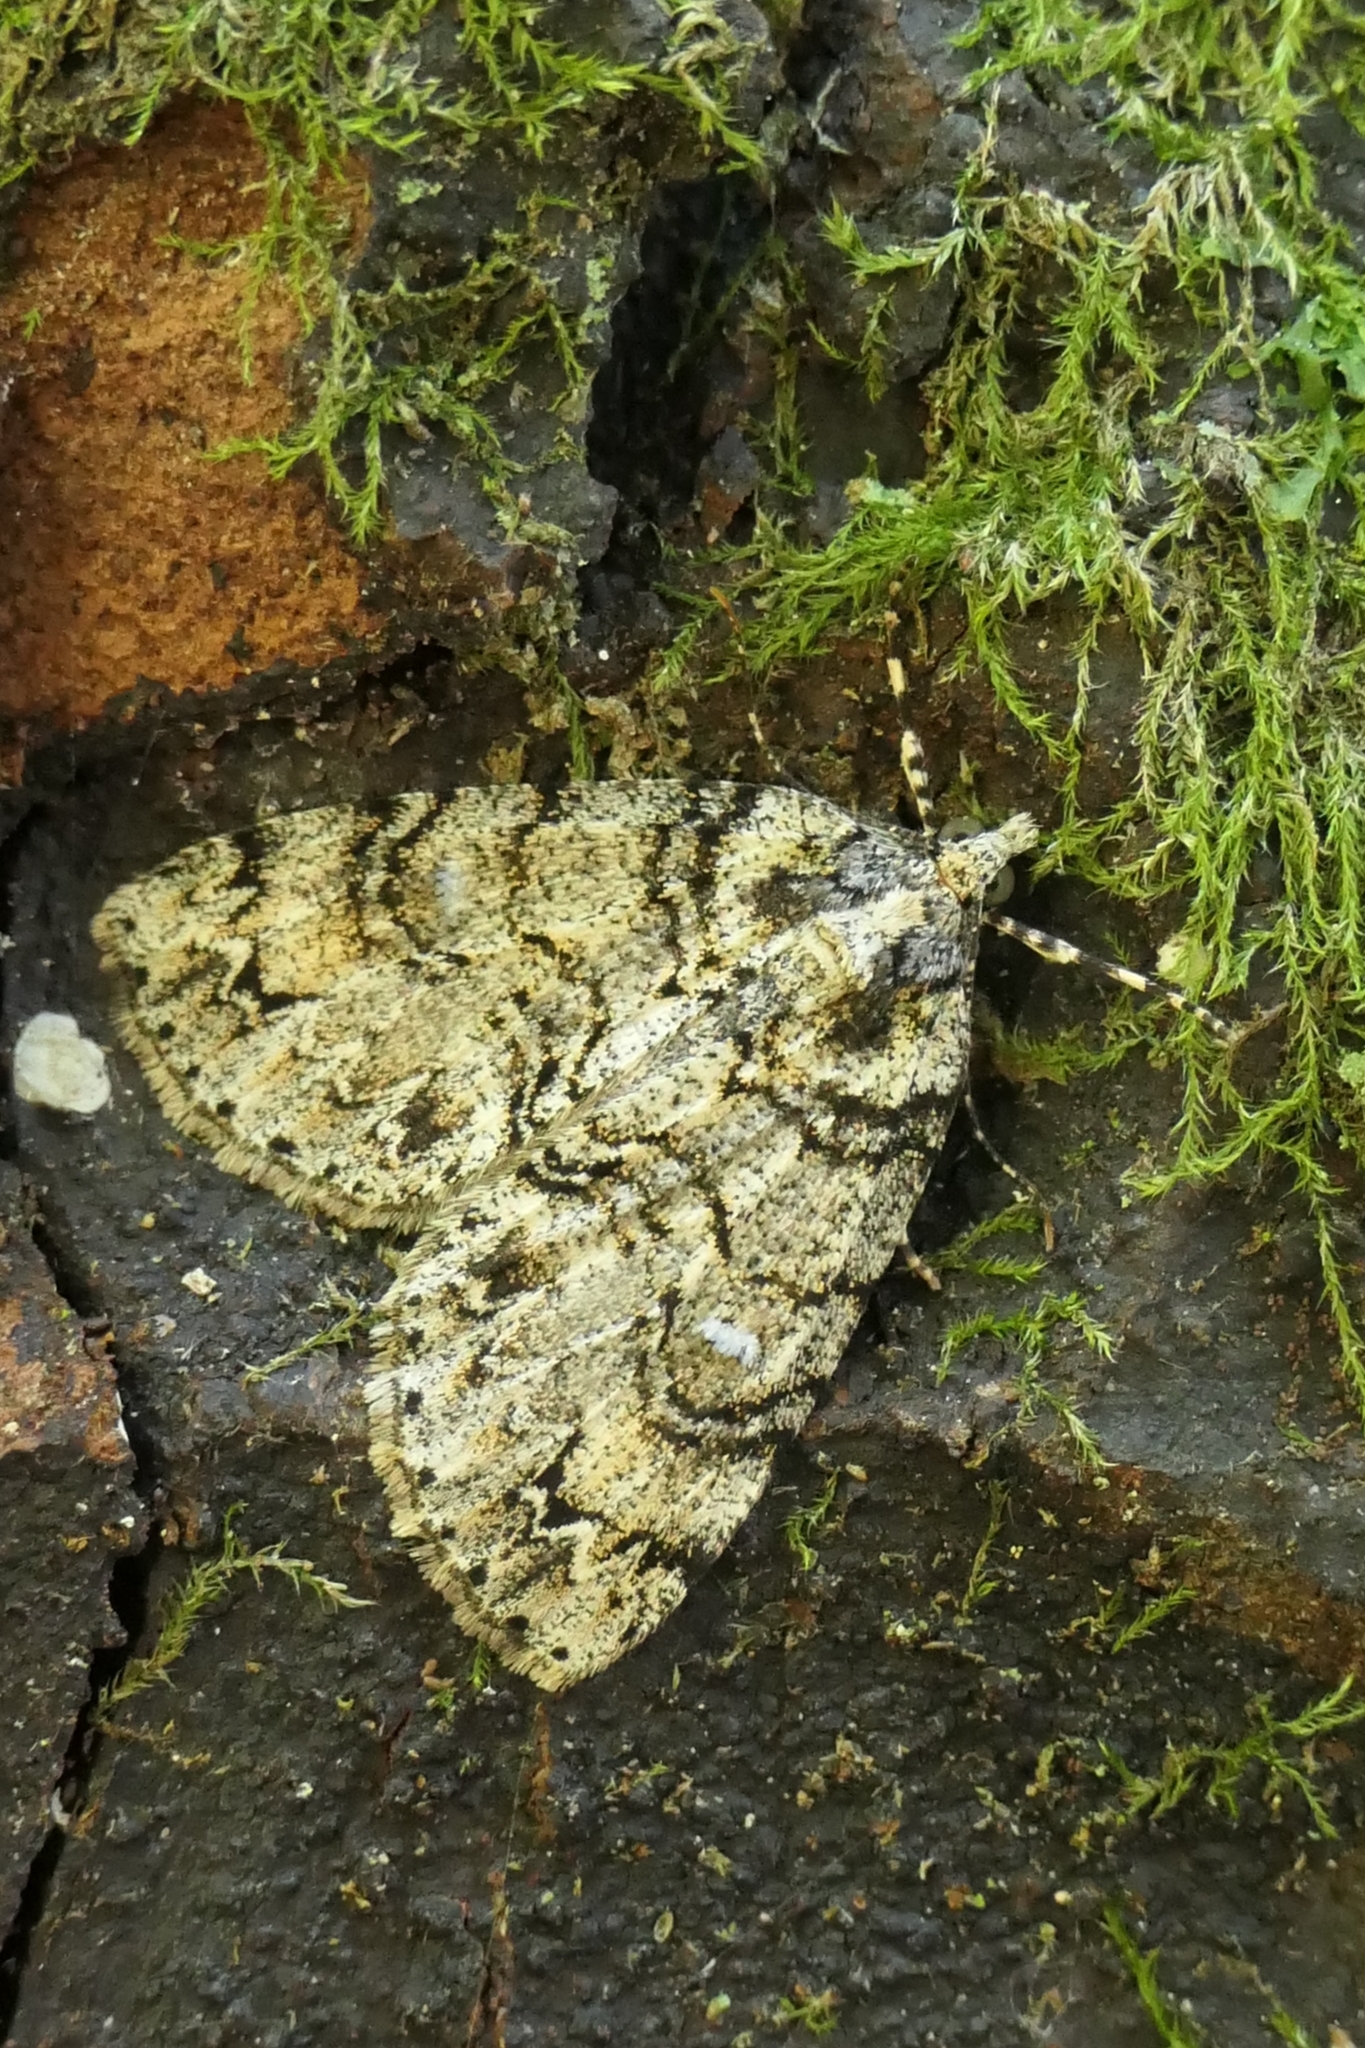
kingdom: Animalia
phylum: Arthropoda
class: Insecta
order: Lepidoptera
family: Geometridae
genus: Pseudocoremia
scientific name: Pseudocoremia suavis
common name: Common forest looper
